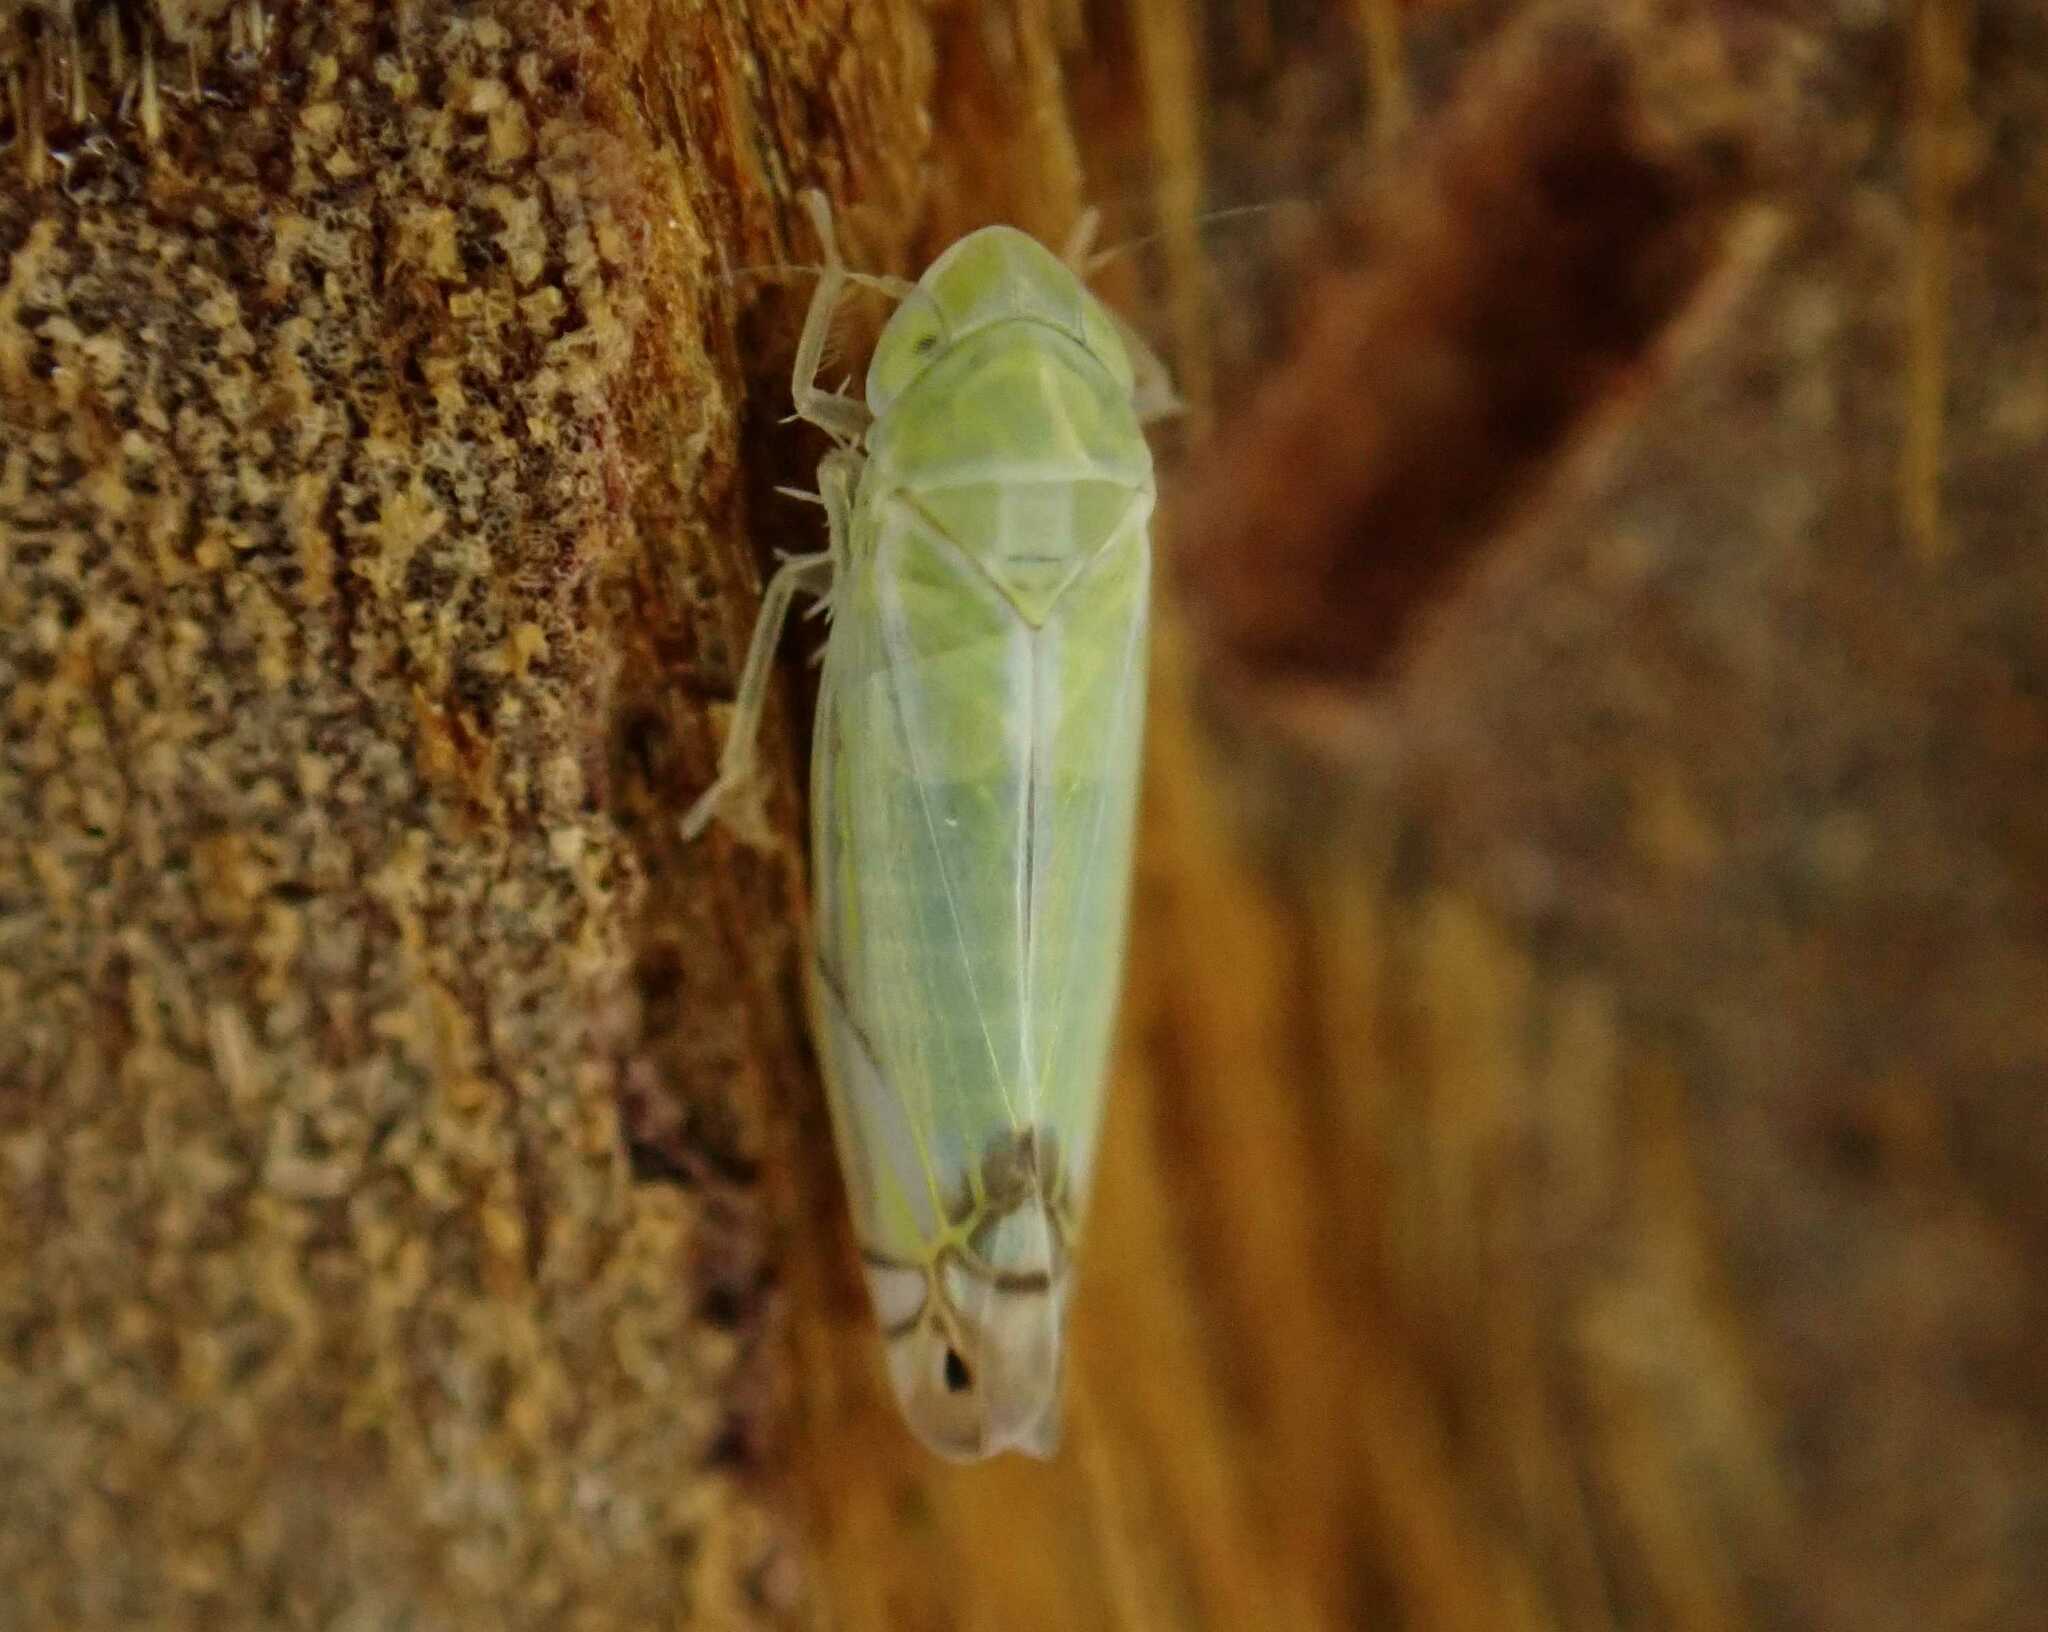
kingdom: Animalia
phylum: Arthropoda
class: Insecta
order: Hemiptera
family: Cicadellidae
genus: Zyginella
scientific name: Zyginella pulchra
